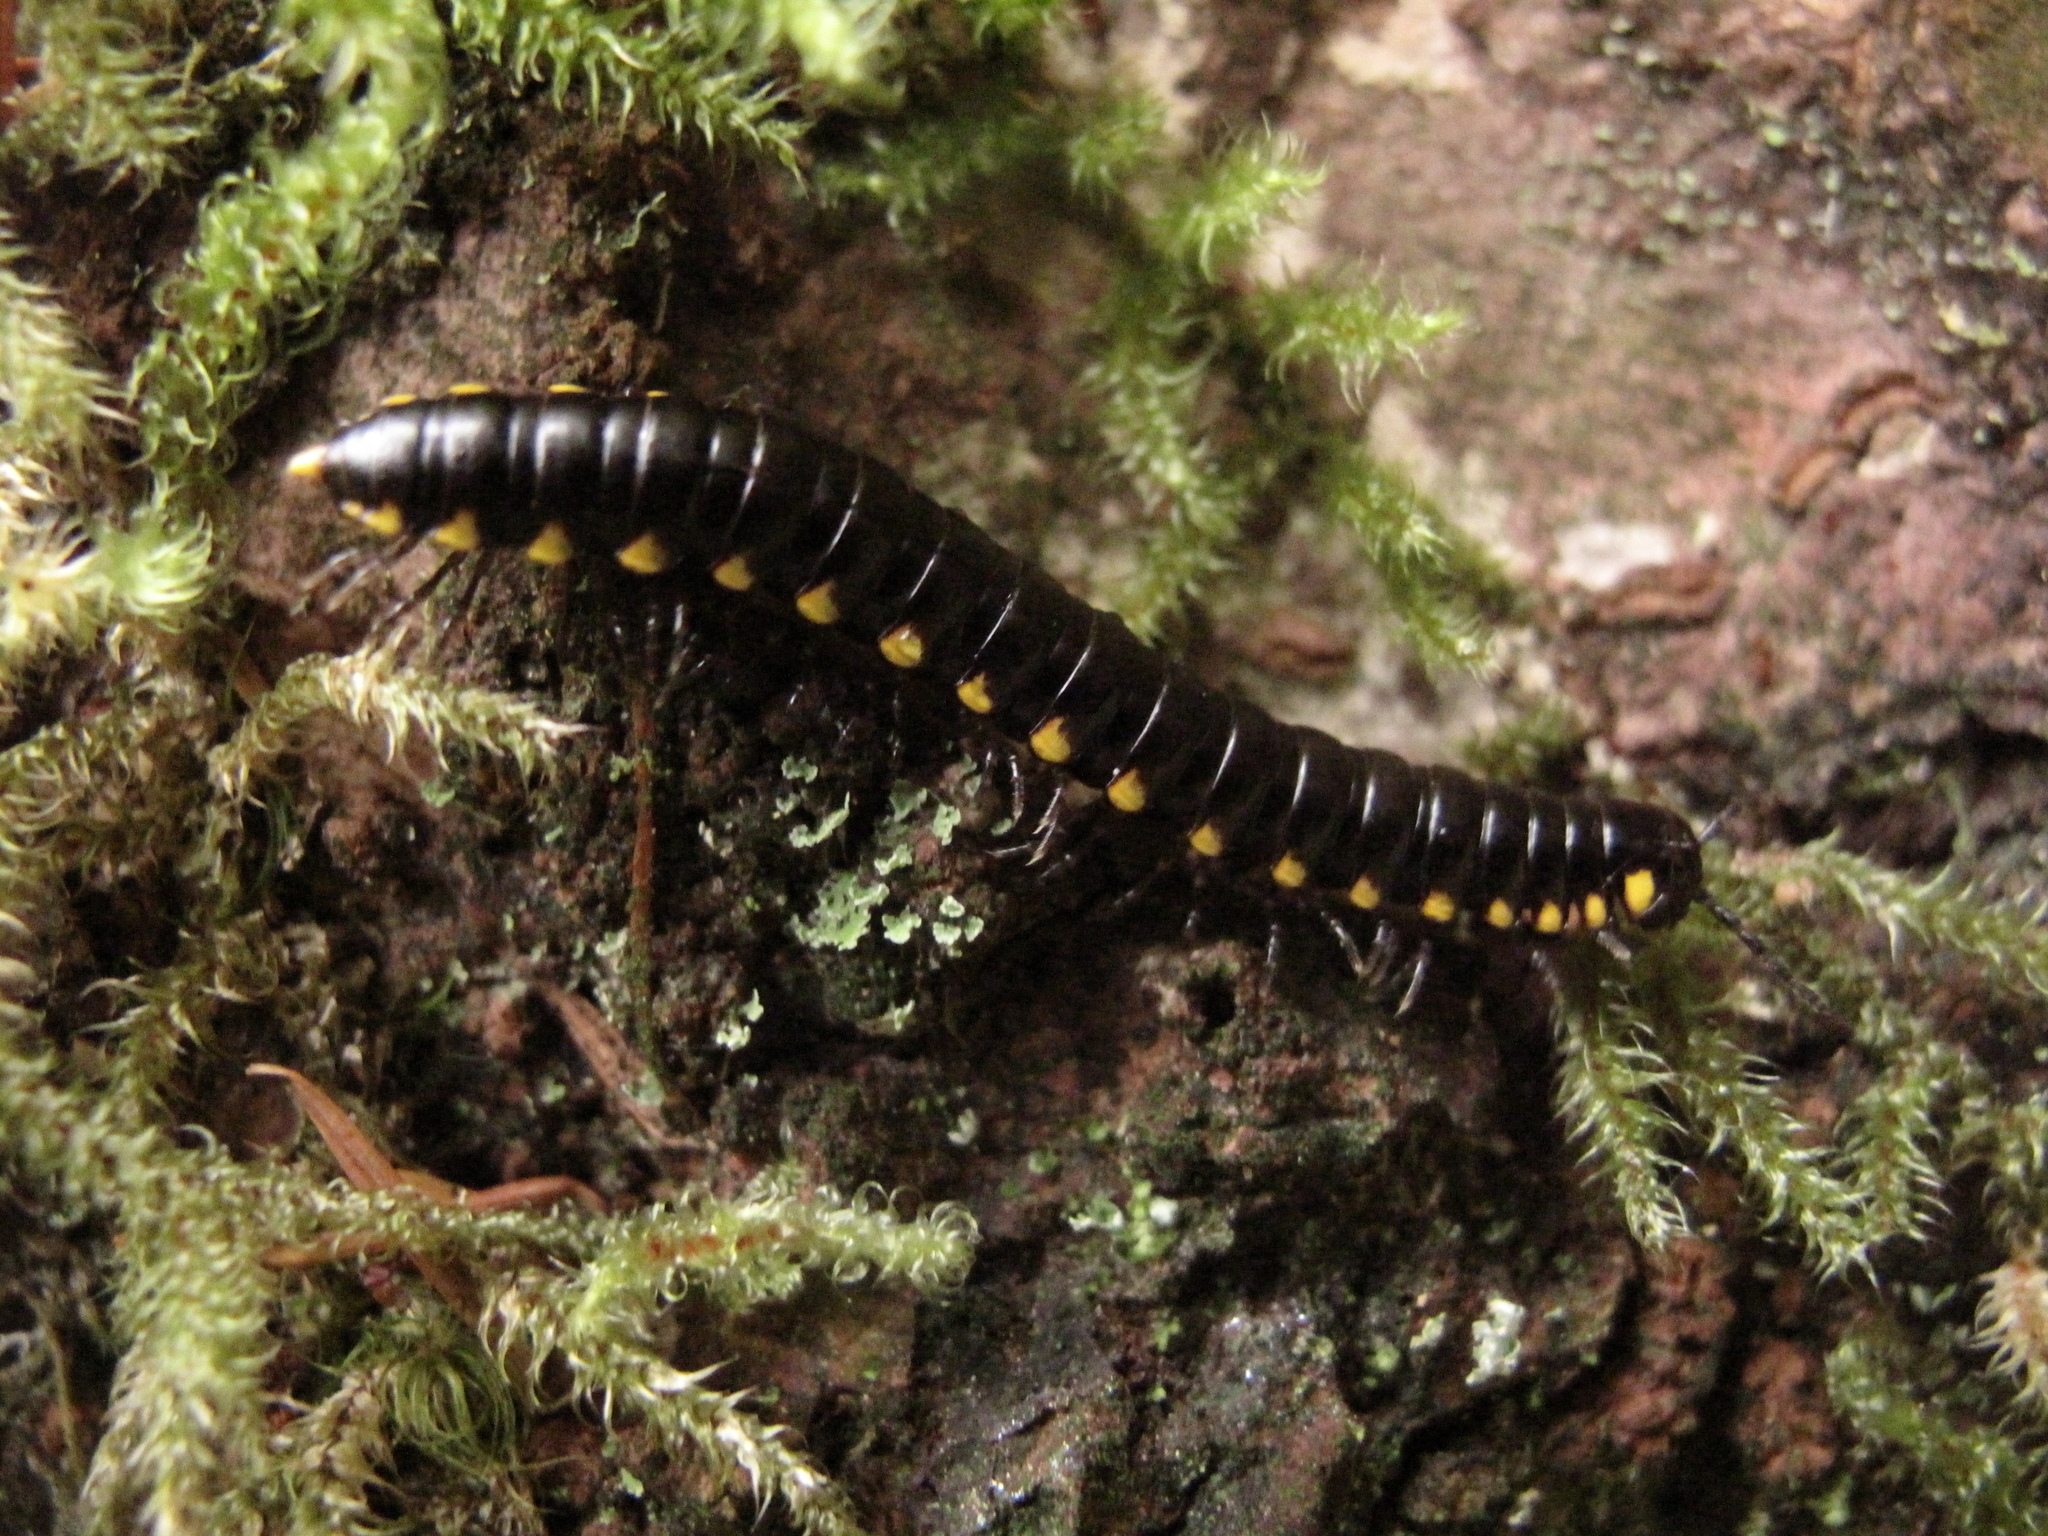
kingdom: Animalia
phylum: Arthropoda
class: Diplopoda
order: Polydesmida
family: Xystodesmidae
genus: Harpaphe
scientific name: Harpaphe haydeniana
